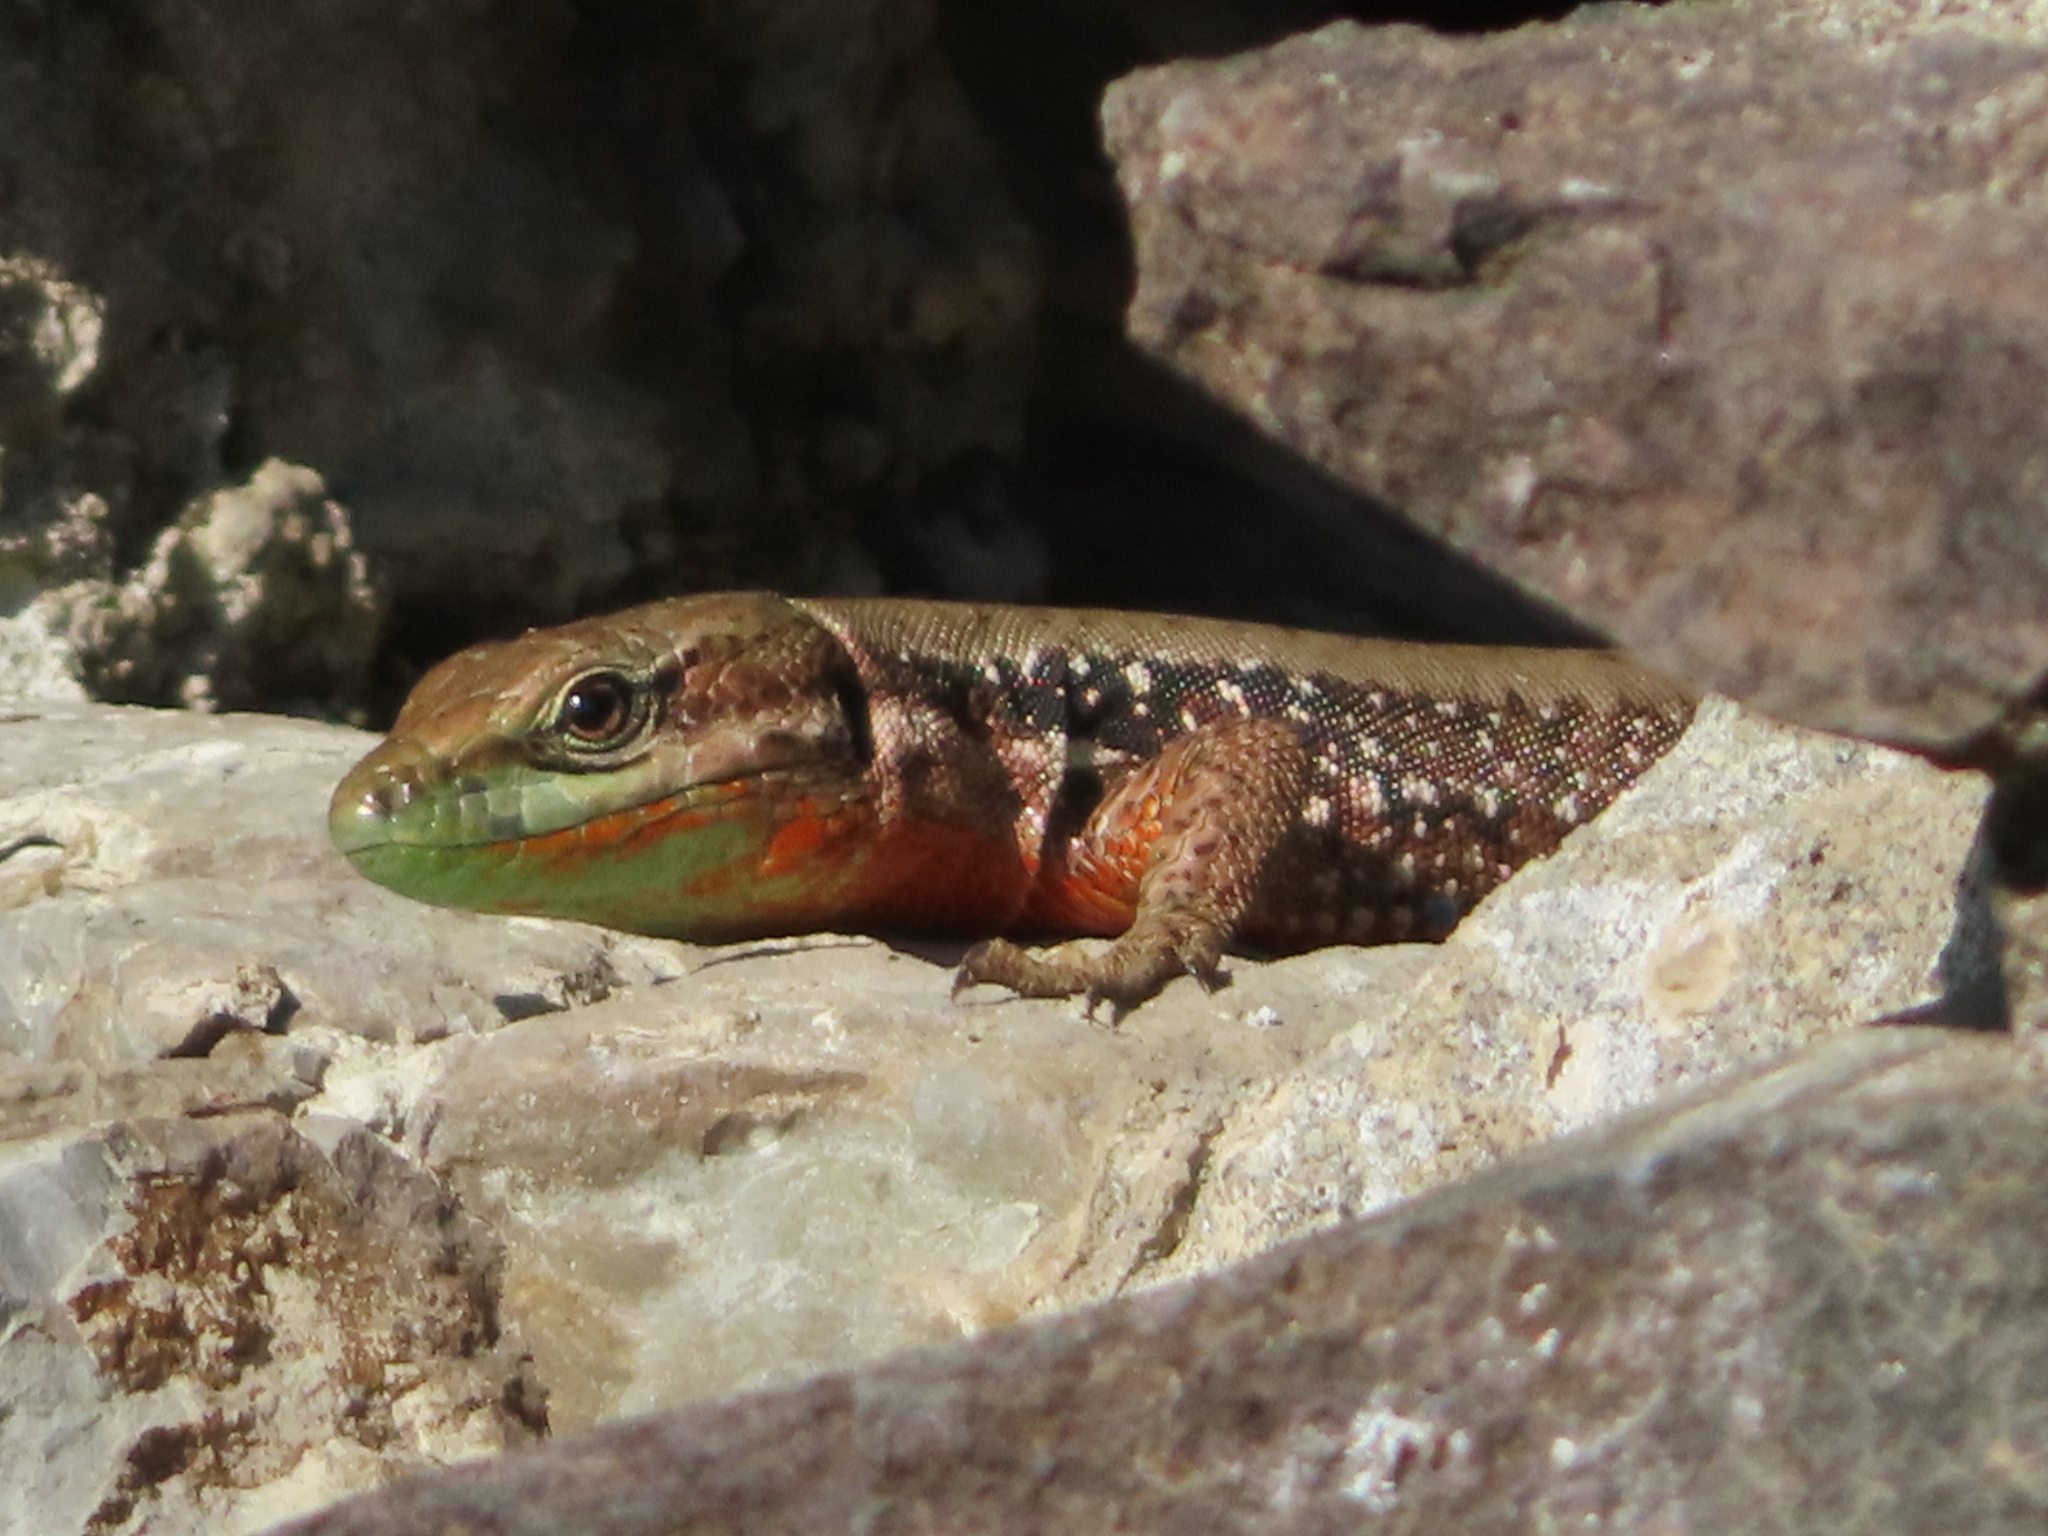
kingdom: Animalia
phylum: Chordata
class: Squamata
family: Lacertidae
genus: Phoenicolacerta
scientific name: Phoenicolacerta laevis
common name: Lebanon lizard
